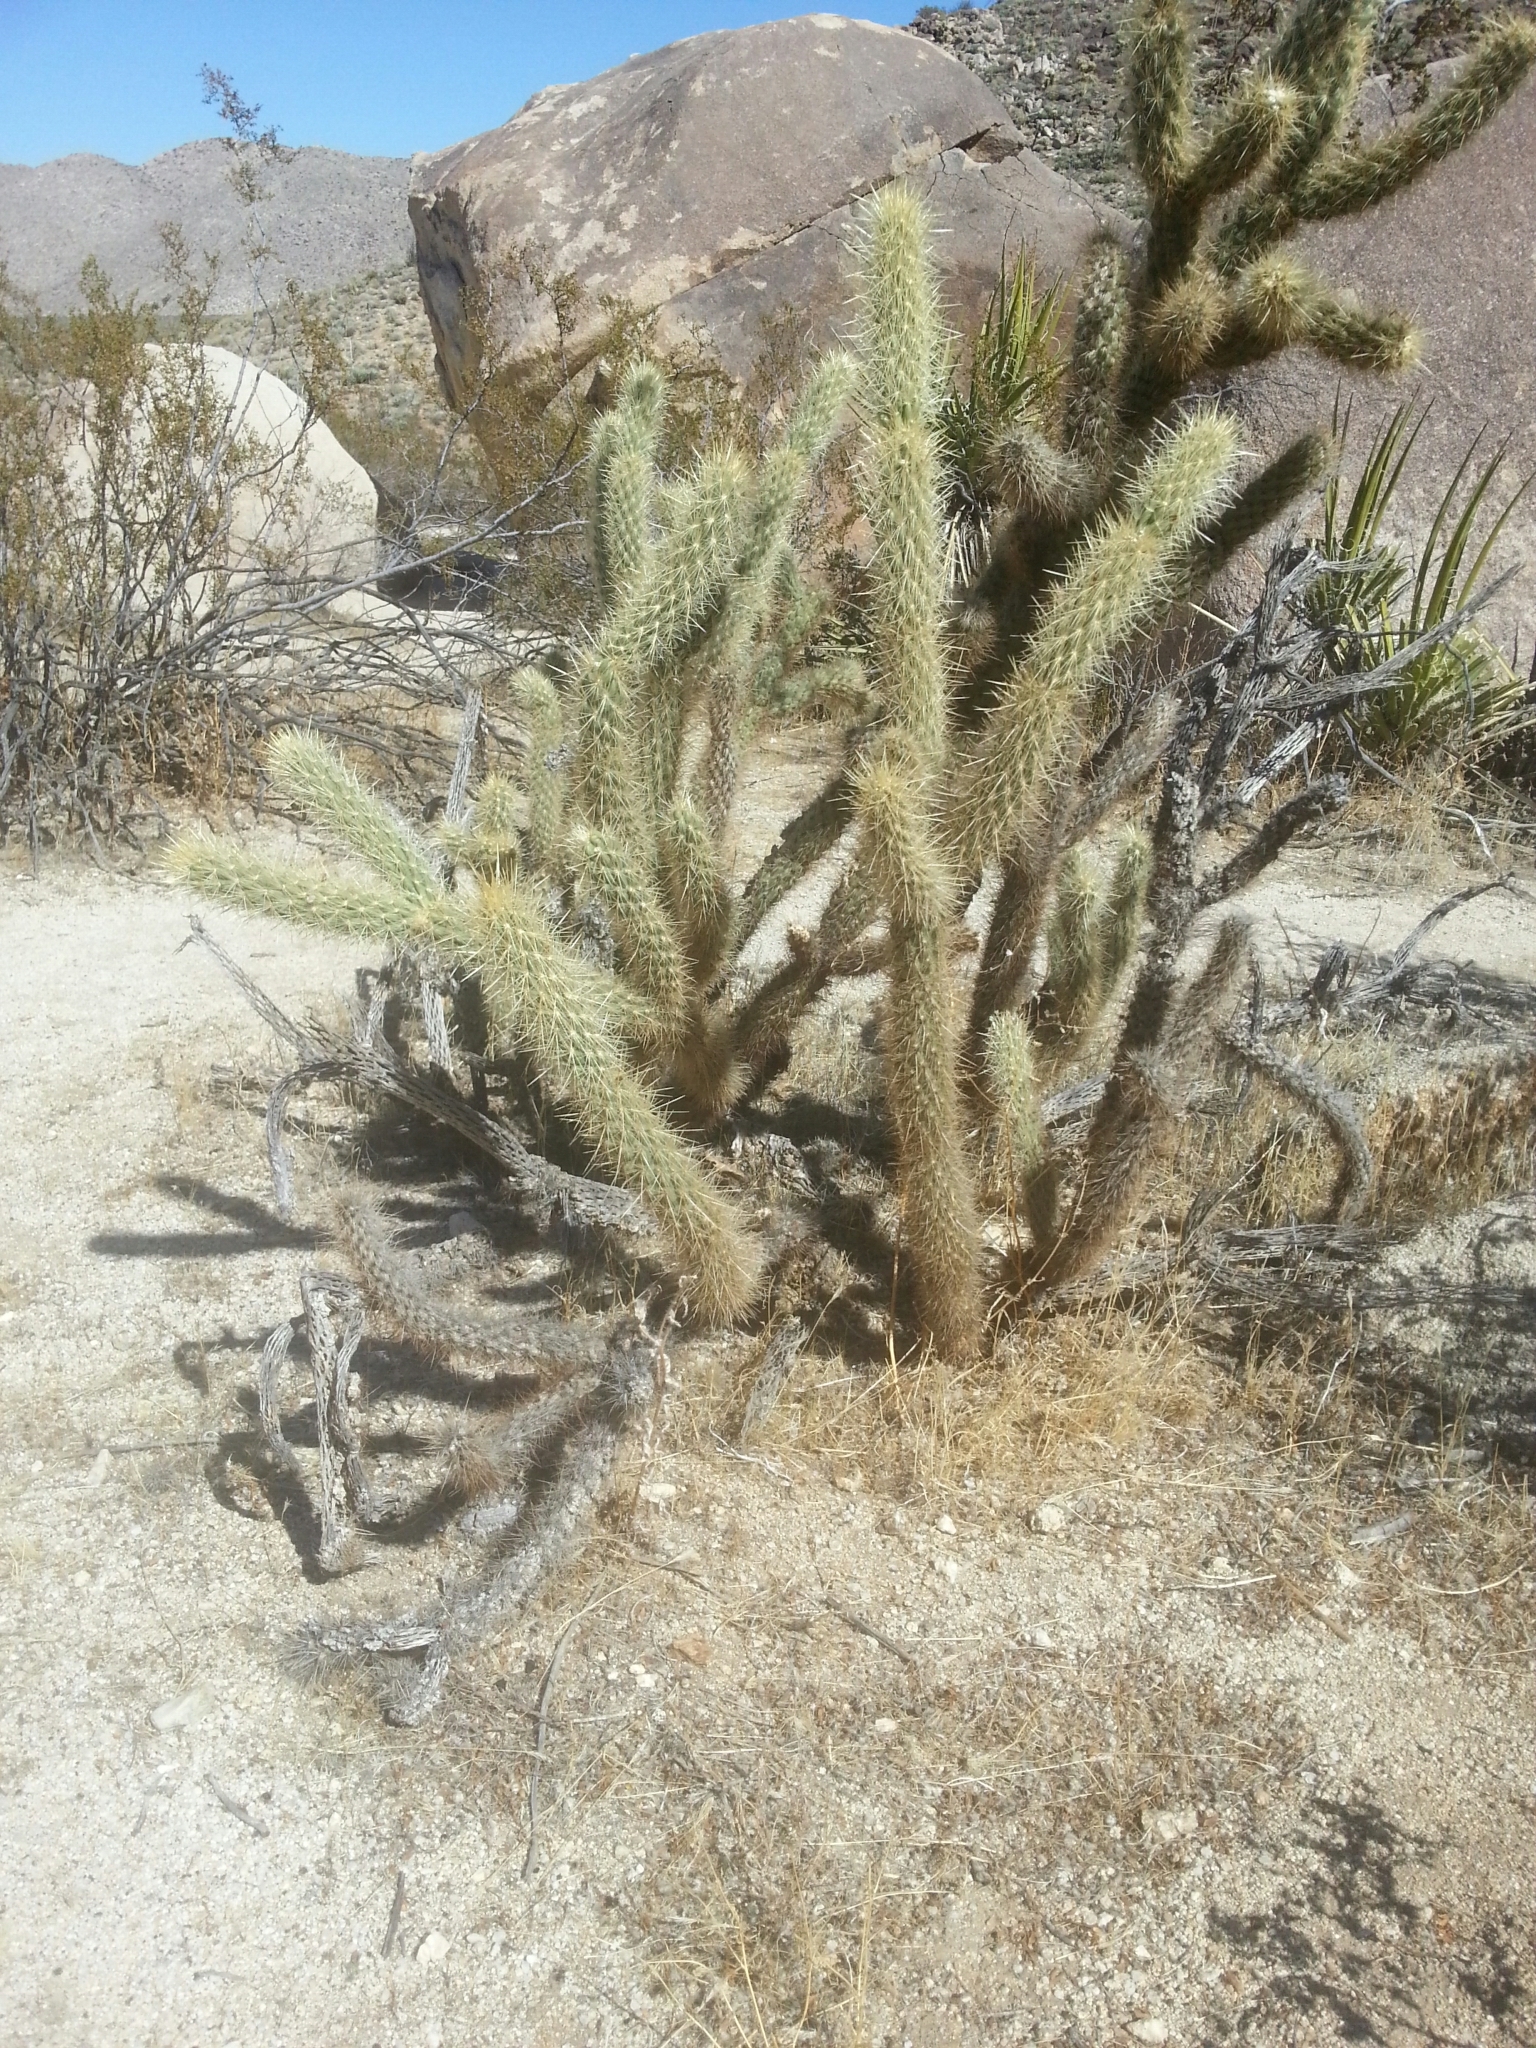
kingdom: Plantae
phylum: Tracheophyta
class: Magnoliopsida
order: Caryophyllales
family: Cactaceae
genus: Cylindropuntia
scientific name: Cylindropuntia ganderi
